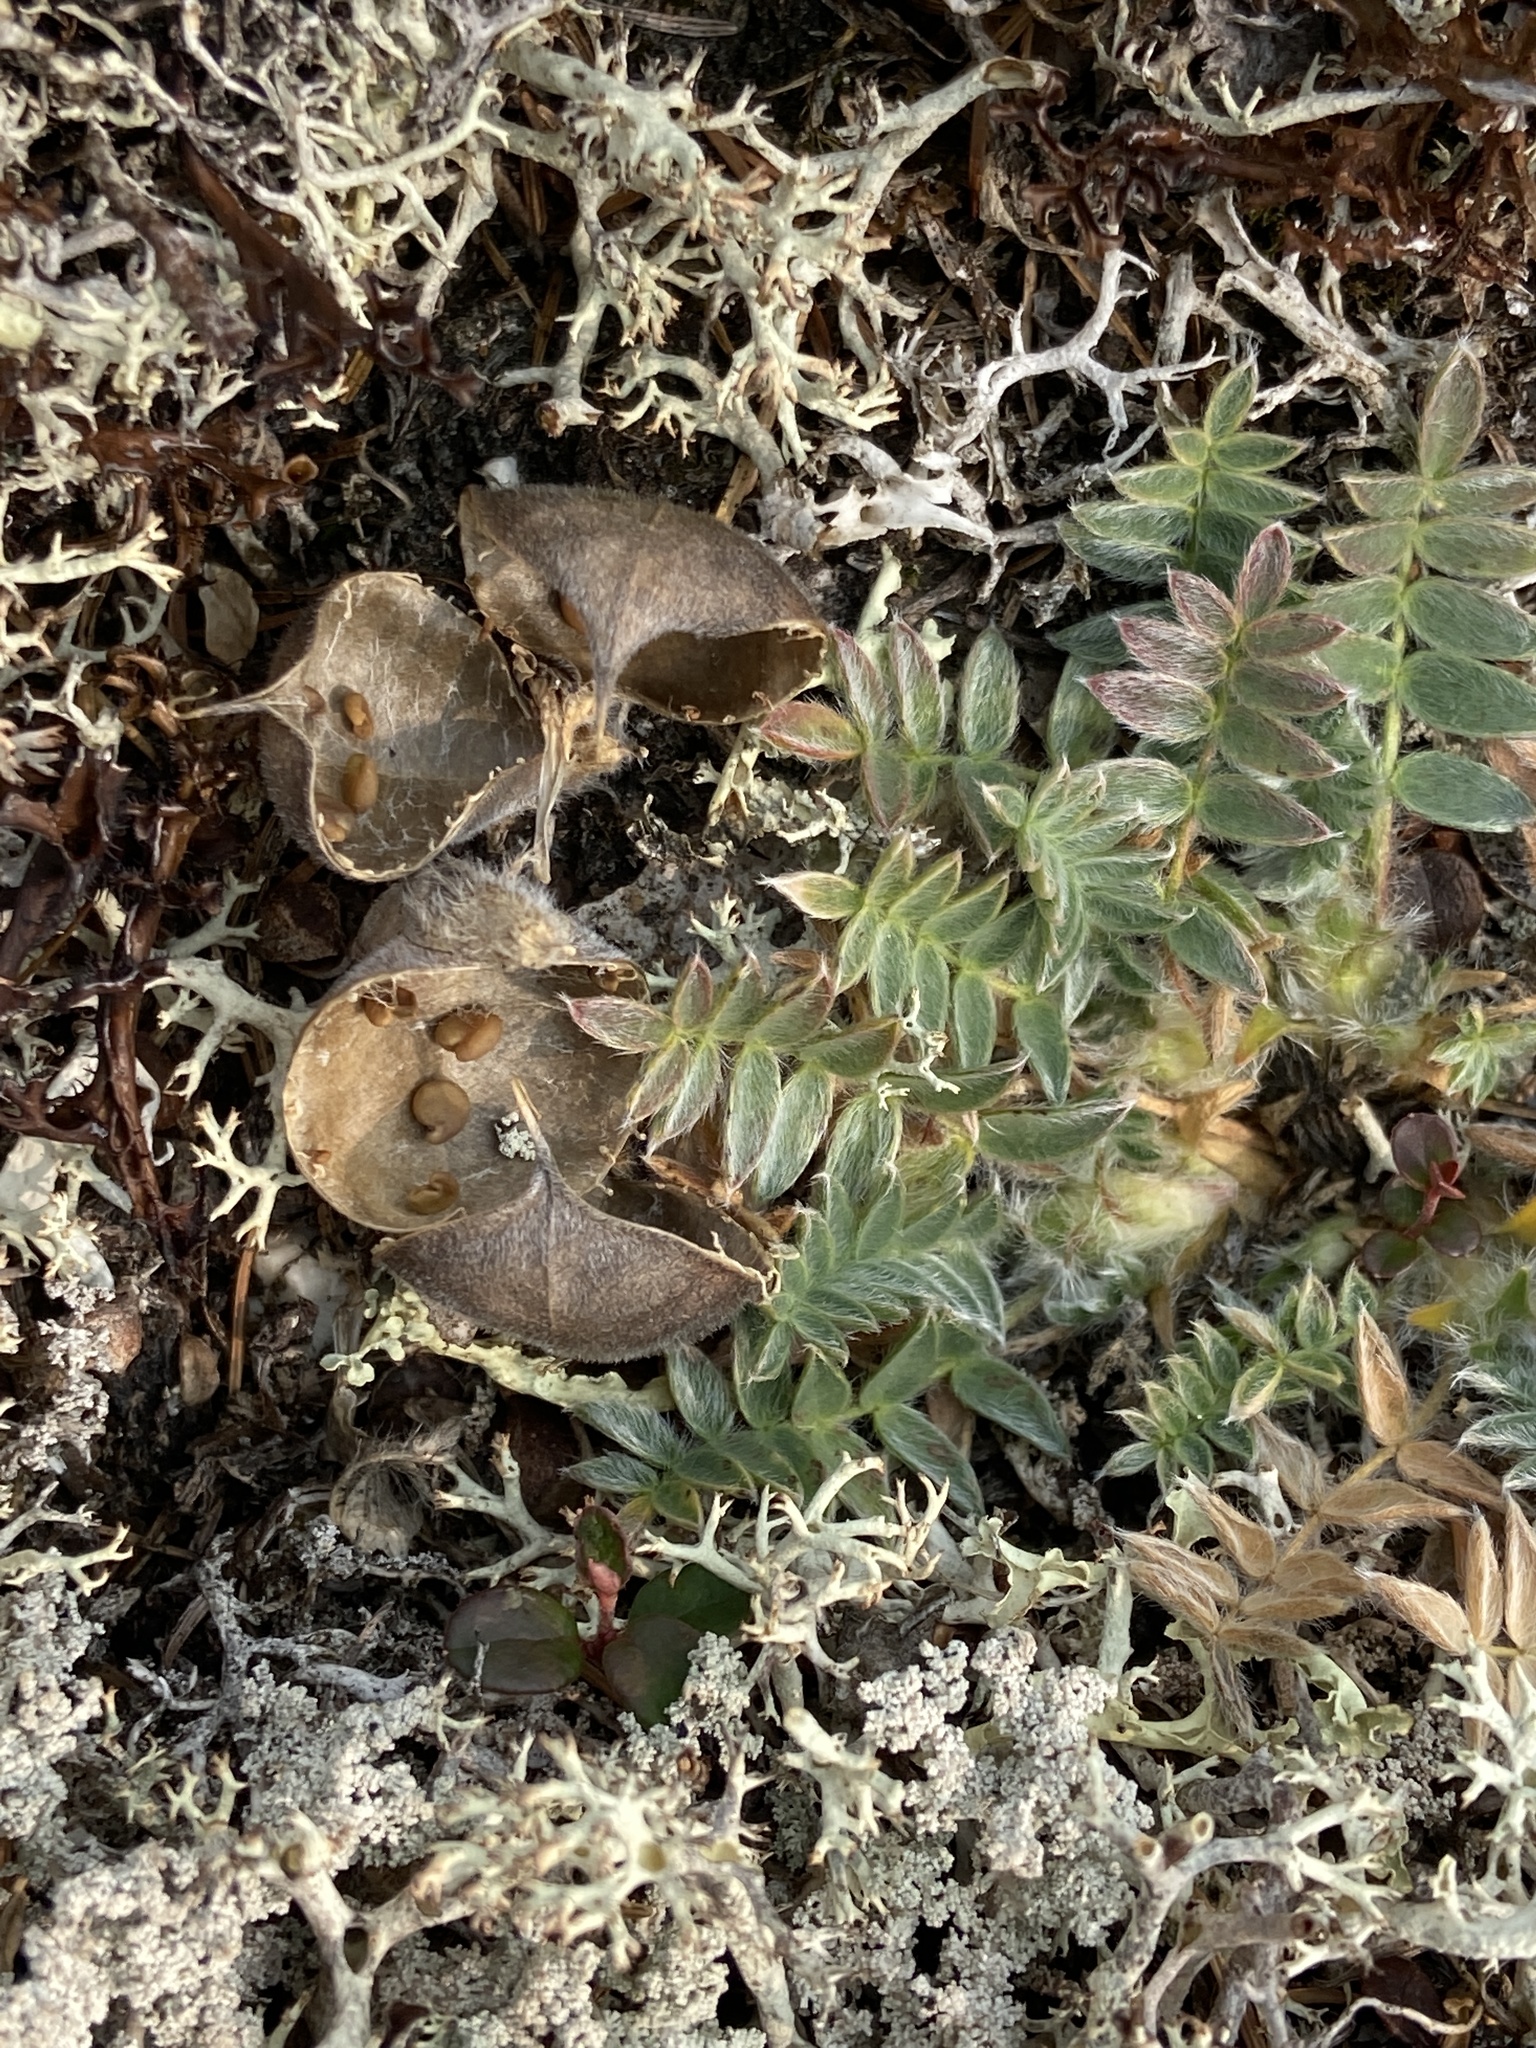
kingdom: Plantae
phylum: Tracheophyta
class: Magnoliopsida
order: Fabales
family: Fabaceae
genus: Oxytropis
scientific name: Oxytropis susumanica
